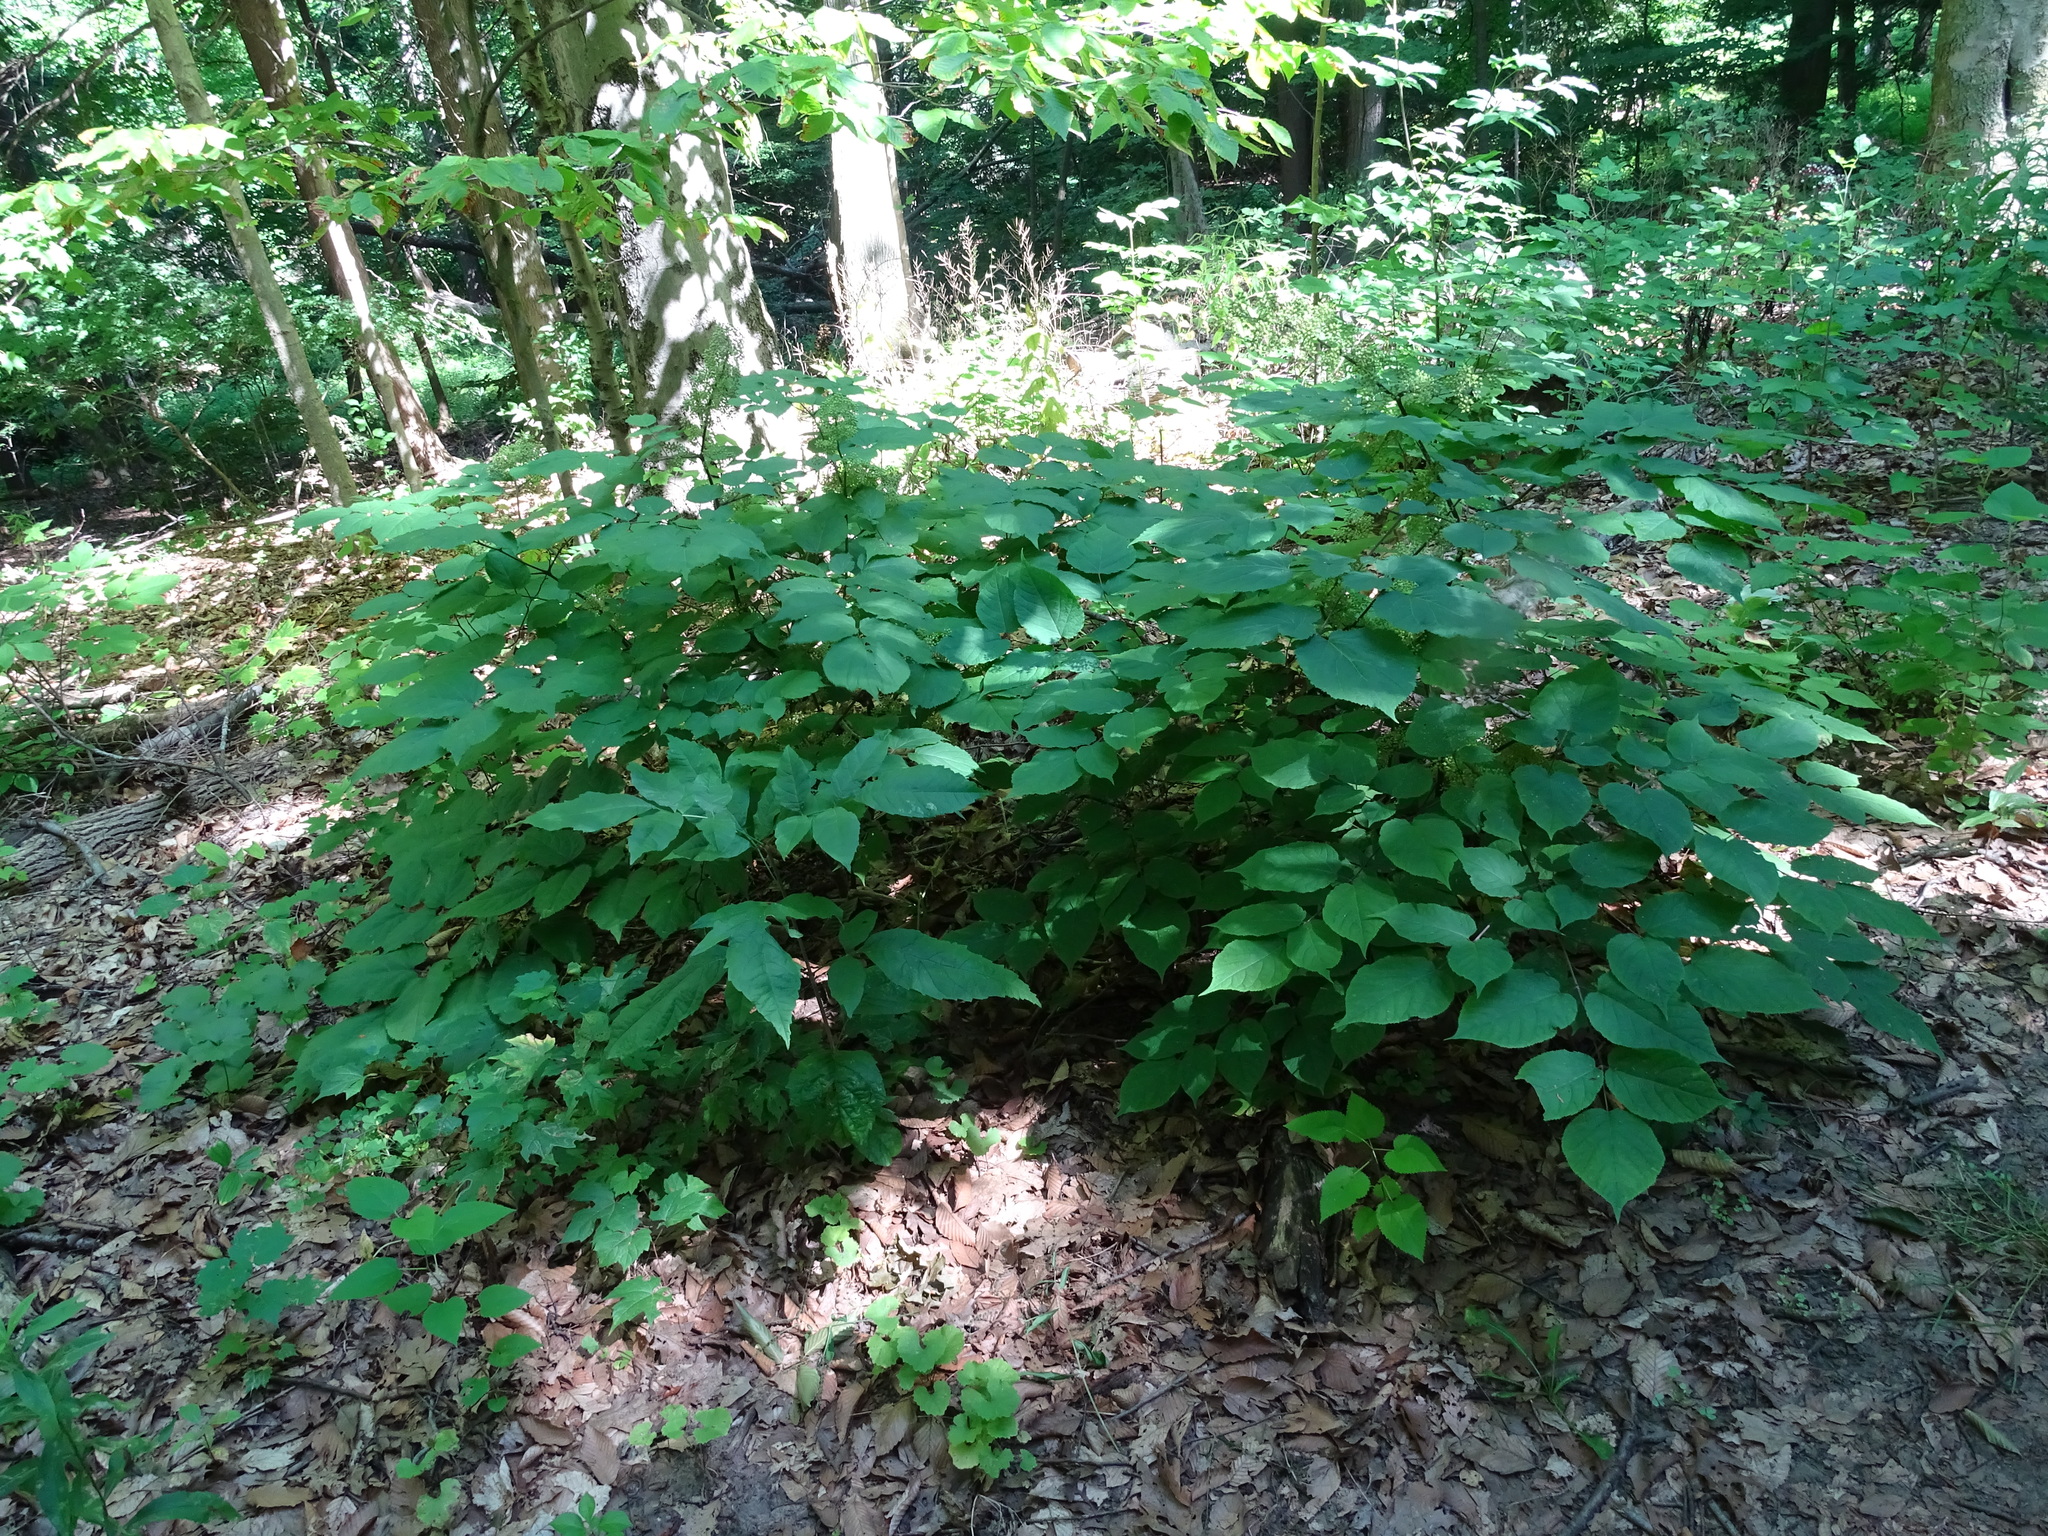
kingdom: Plantae
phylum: Tracheophyta
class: Magnoliopsida
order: Apiales
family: Araliaceae
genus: Aralia
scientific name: Aralia racemosa
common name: American-spikenard
